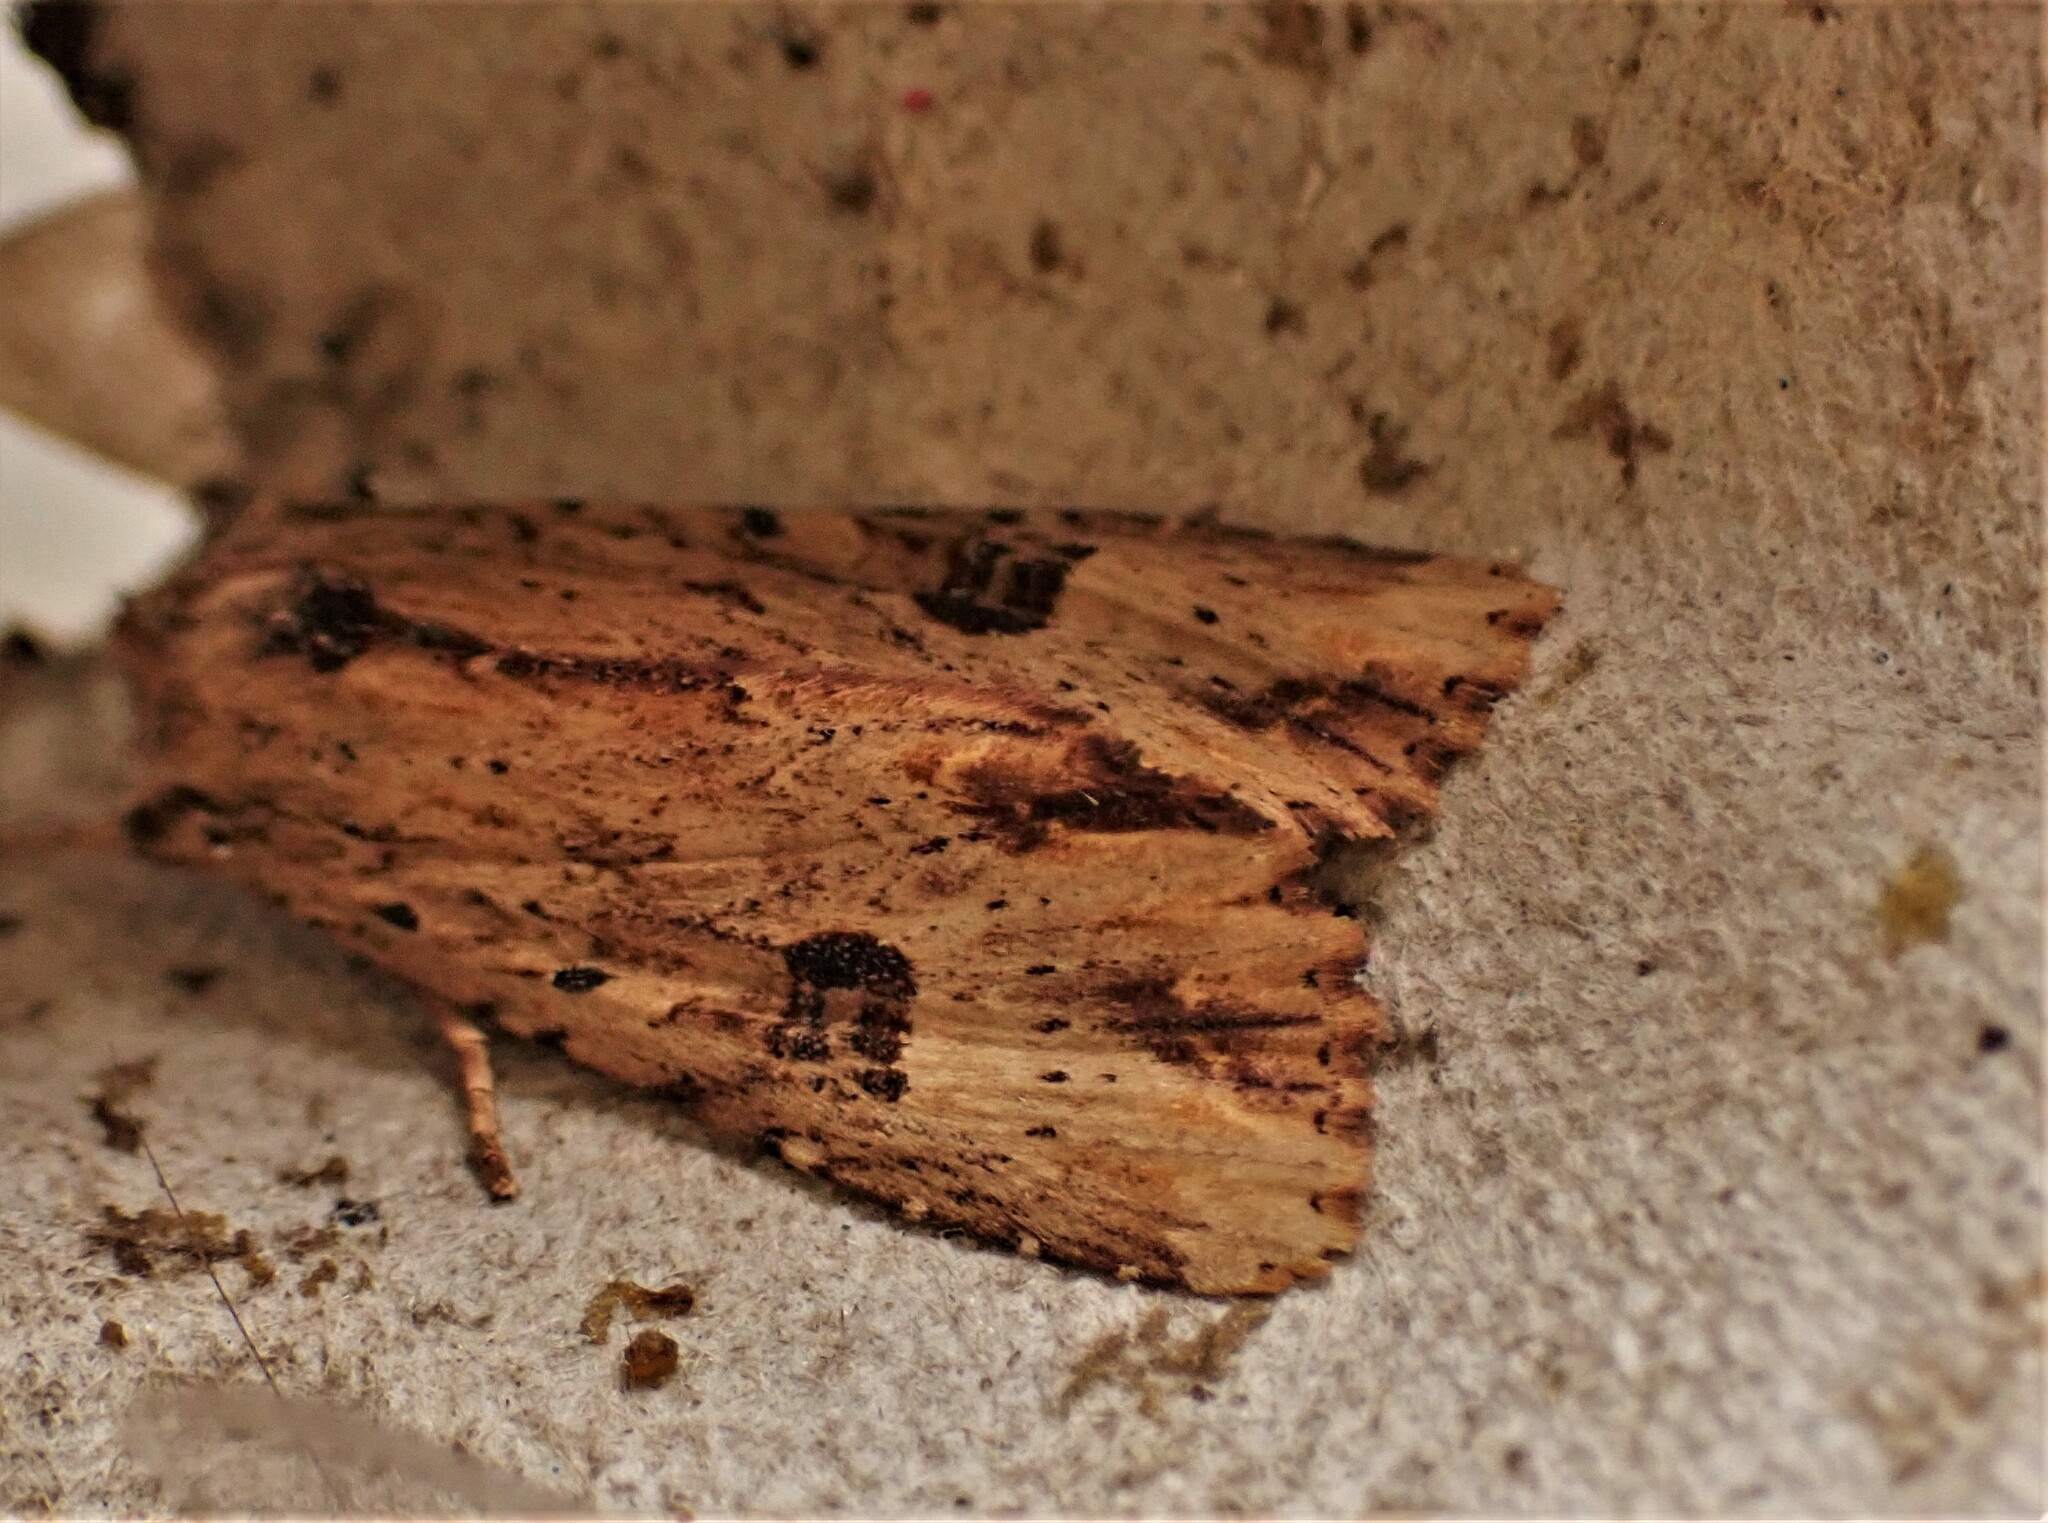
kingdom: Animalia
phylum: Arthropoda
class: Insecta
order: Lepidoptera
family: Noctuidae
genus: Ichneutica
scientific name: Ichneutica
